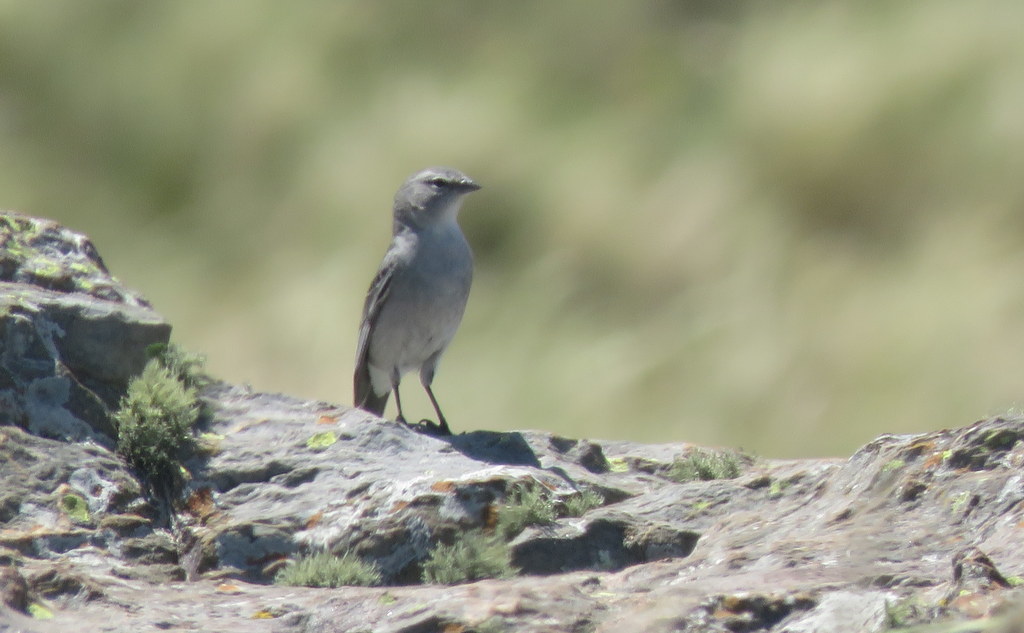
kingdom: Animalia
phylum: Chordata
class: Aves
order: Passeriformes
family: Thraupidae
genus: Geospizopsis
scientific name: Geospizopsis plebejus
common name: Ash-breasted sierra-finch
